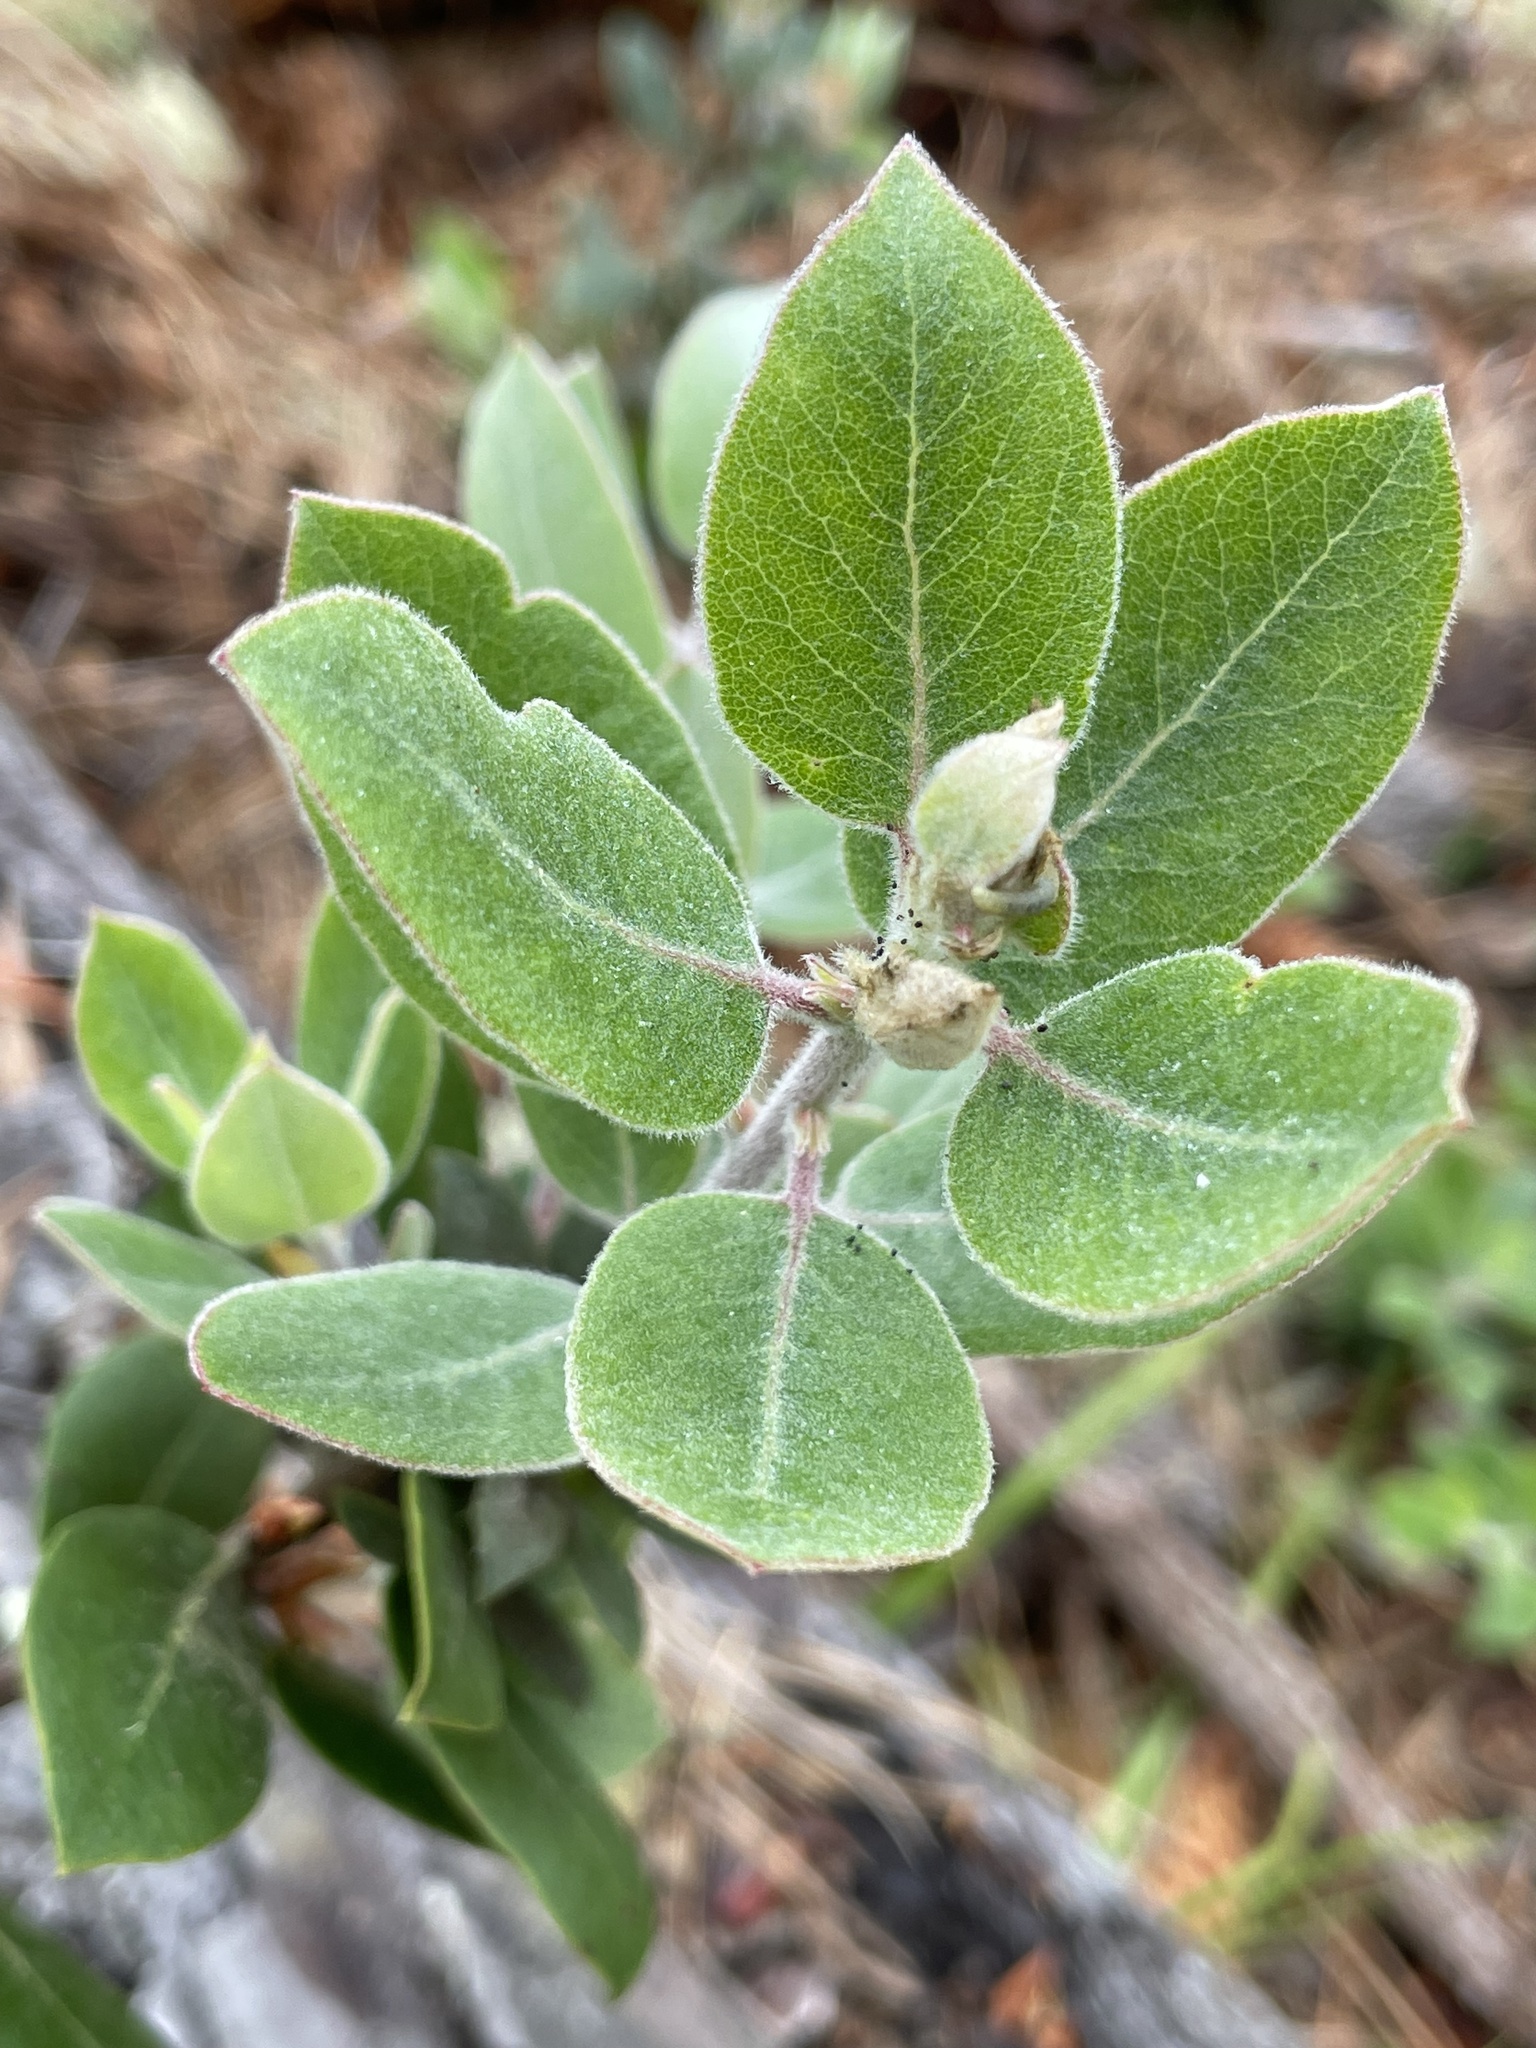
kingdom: Plantae
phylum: Tracheophyta
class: Magnoliopsida
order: Ericales
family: Ericaceae
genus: Arctostaphylos
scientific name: Arctostaphylos tomentosa
